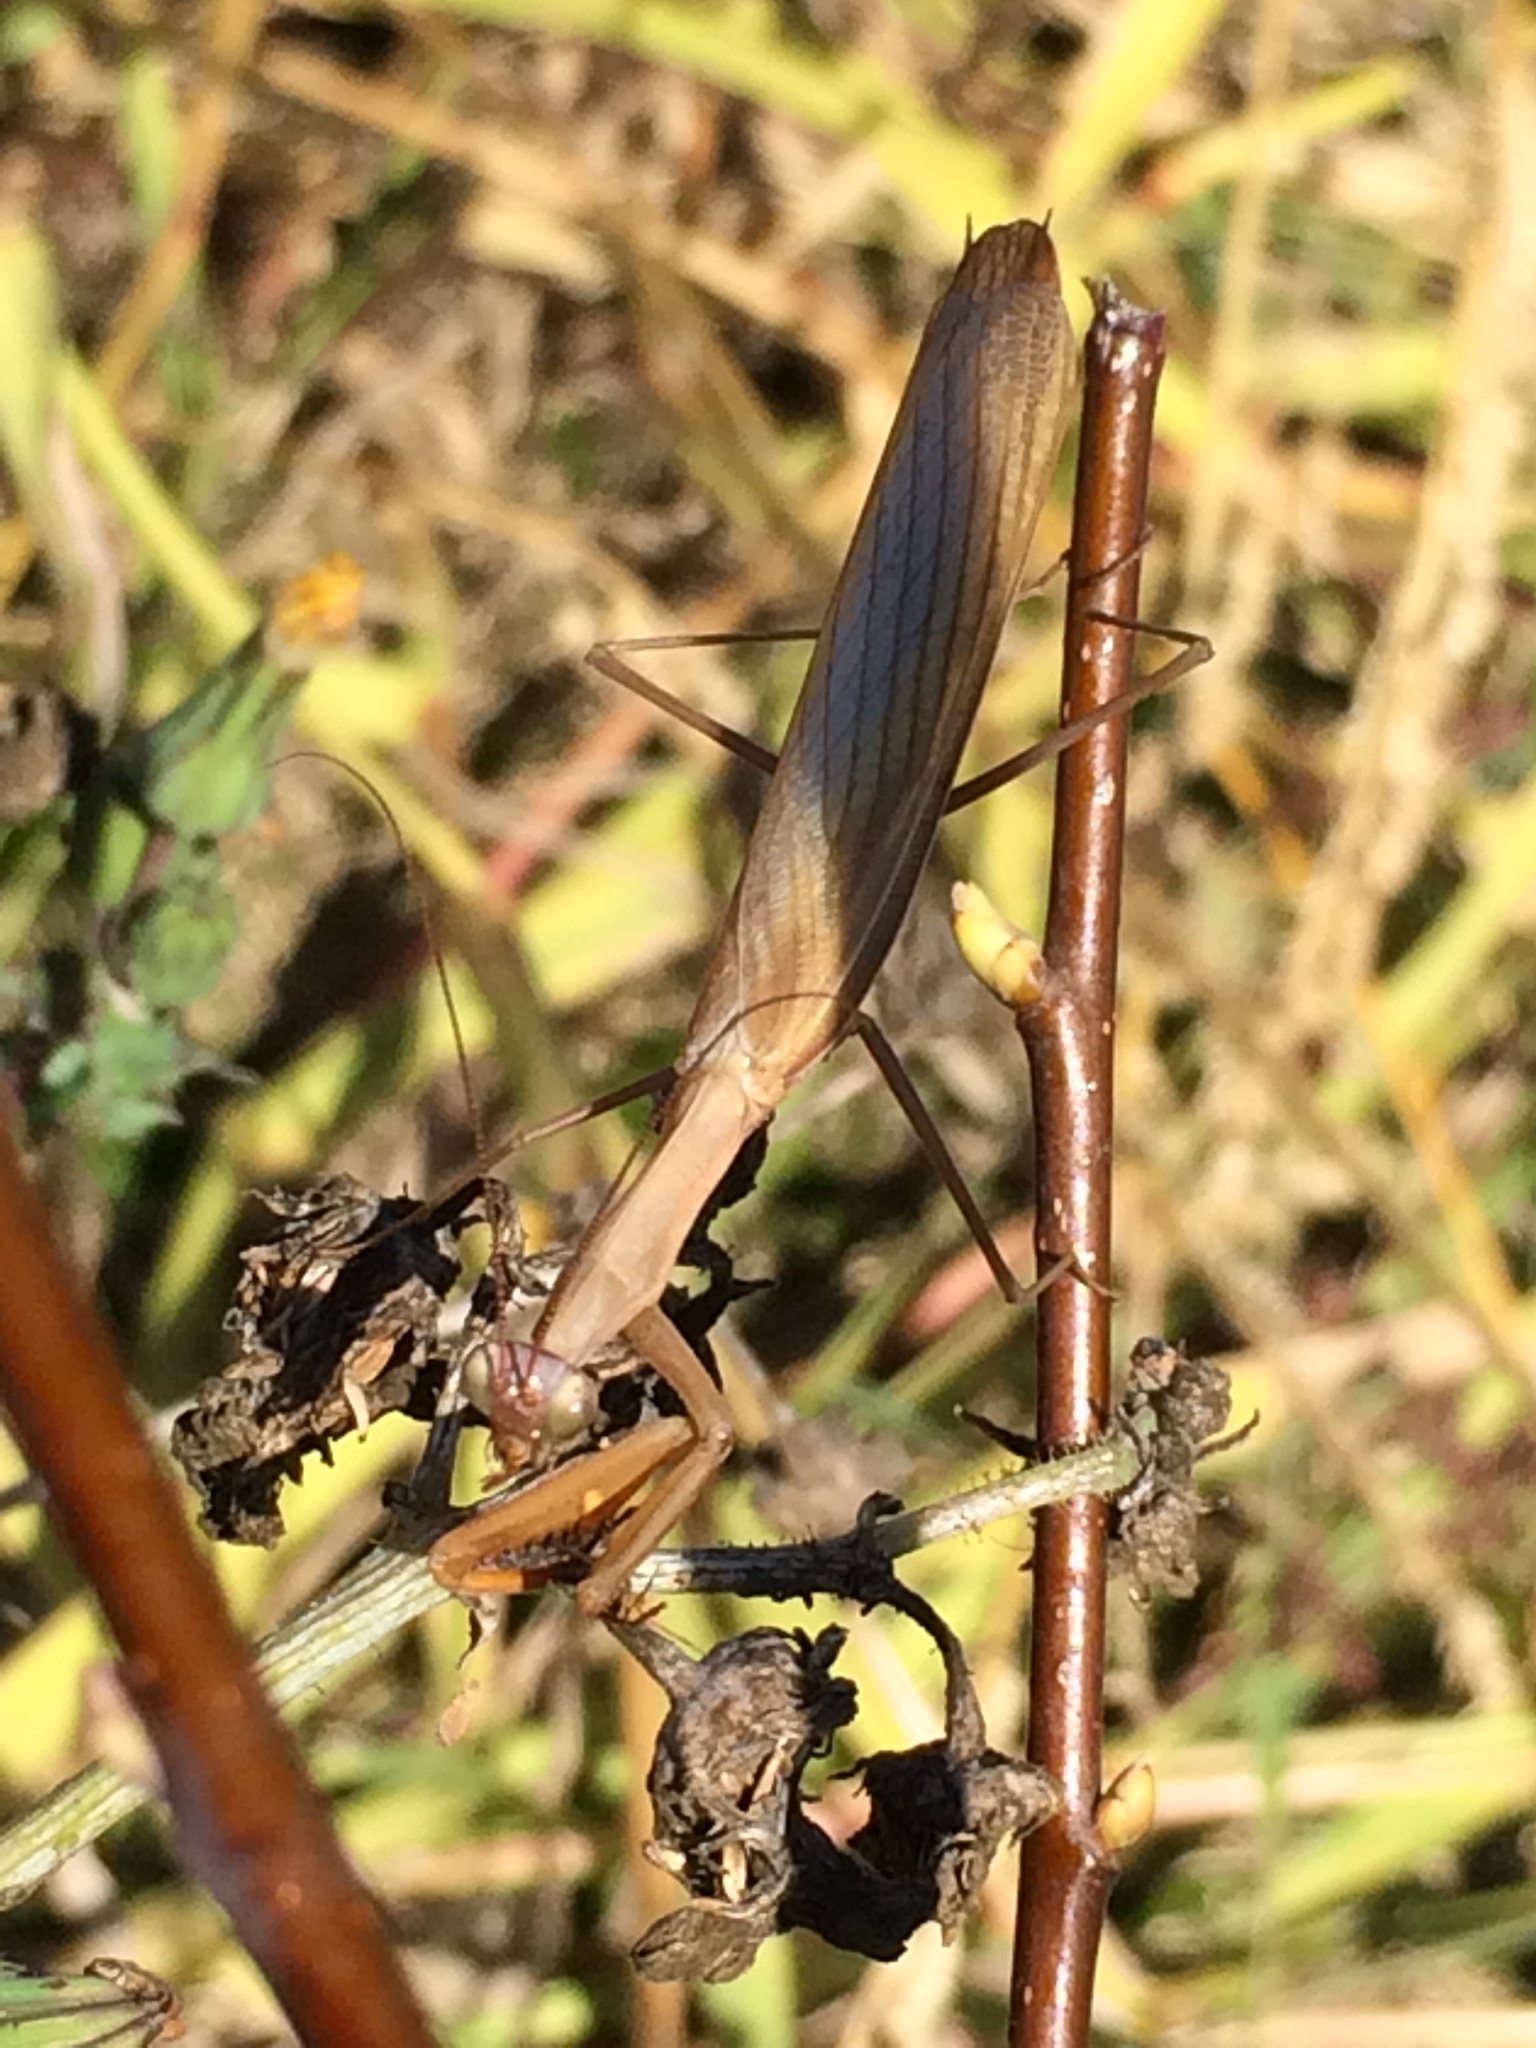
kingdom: Animalia
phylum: Arthropoda
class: Insecta
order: Mantodea
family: Mantidae
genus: Mantis
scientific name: Mantis religiosa
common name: Praying mantis
